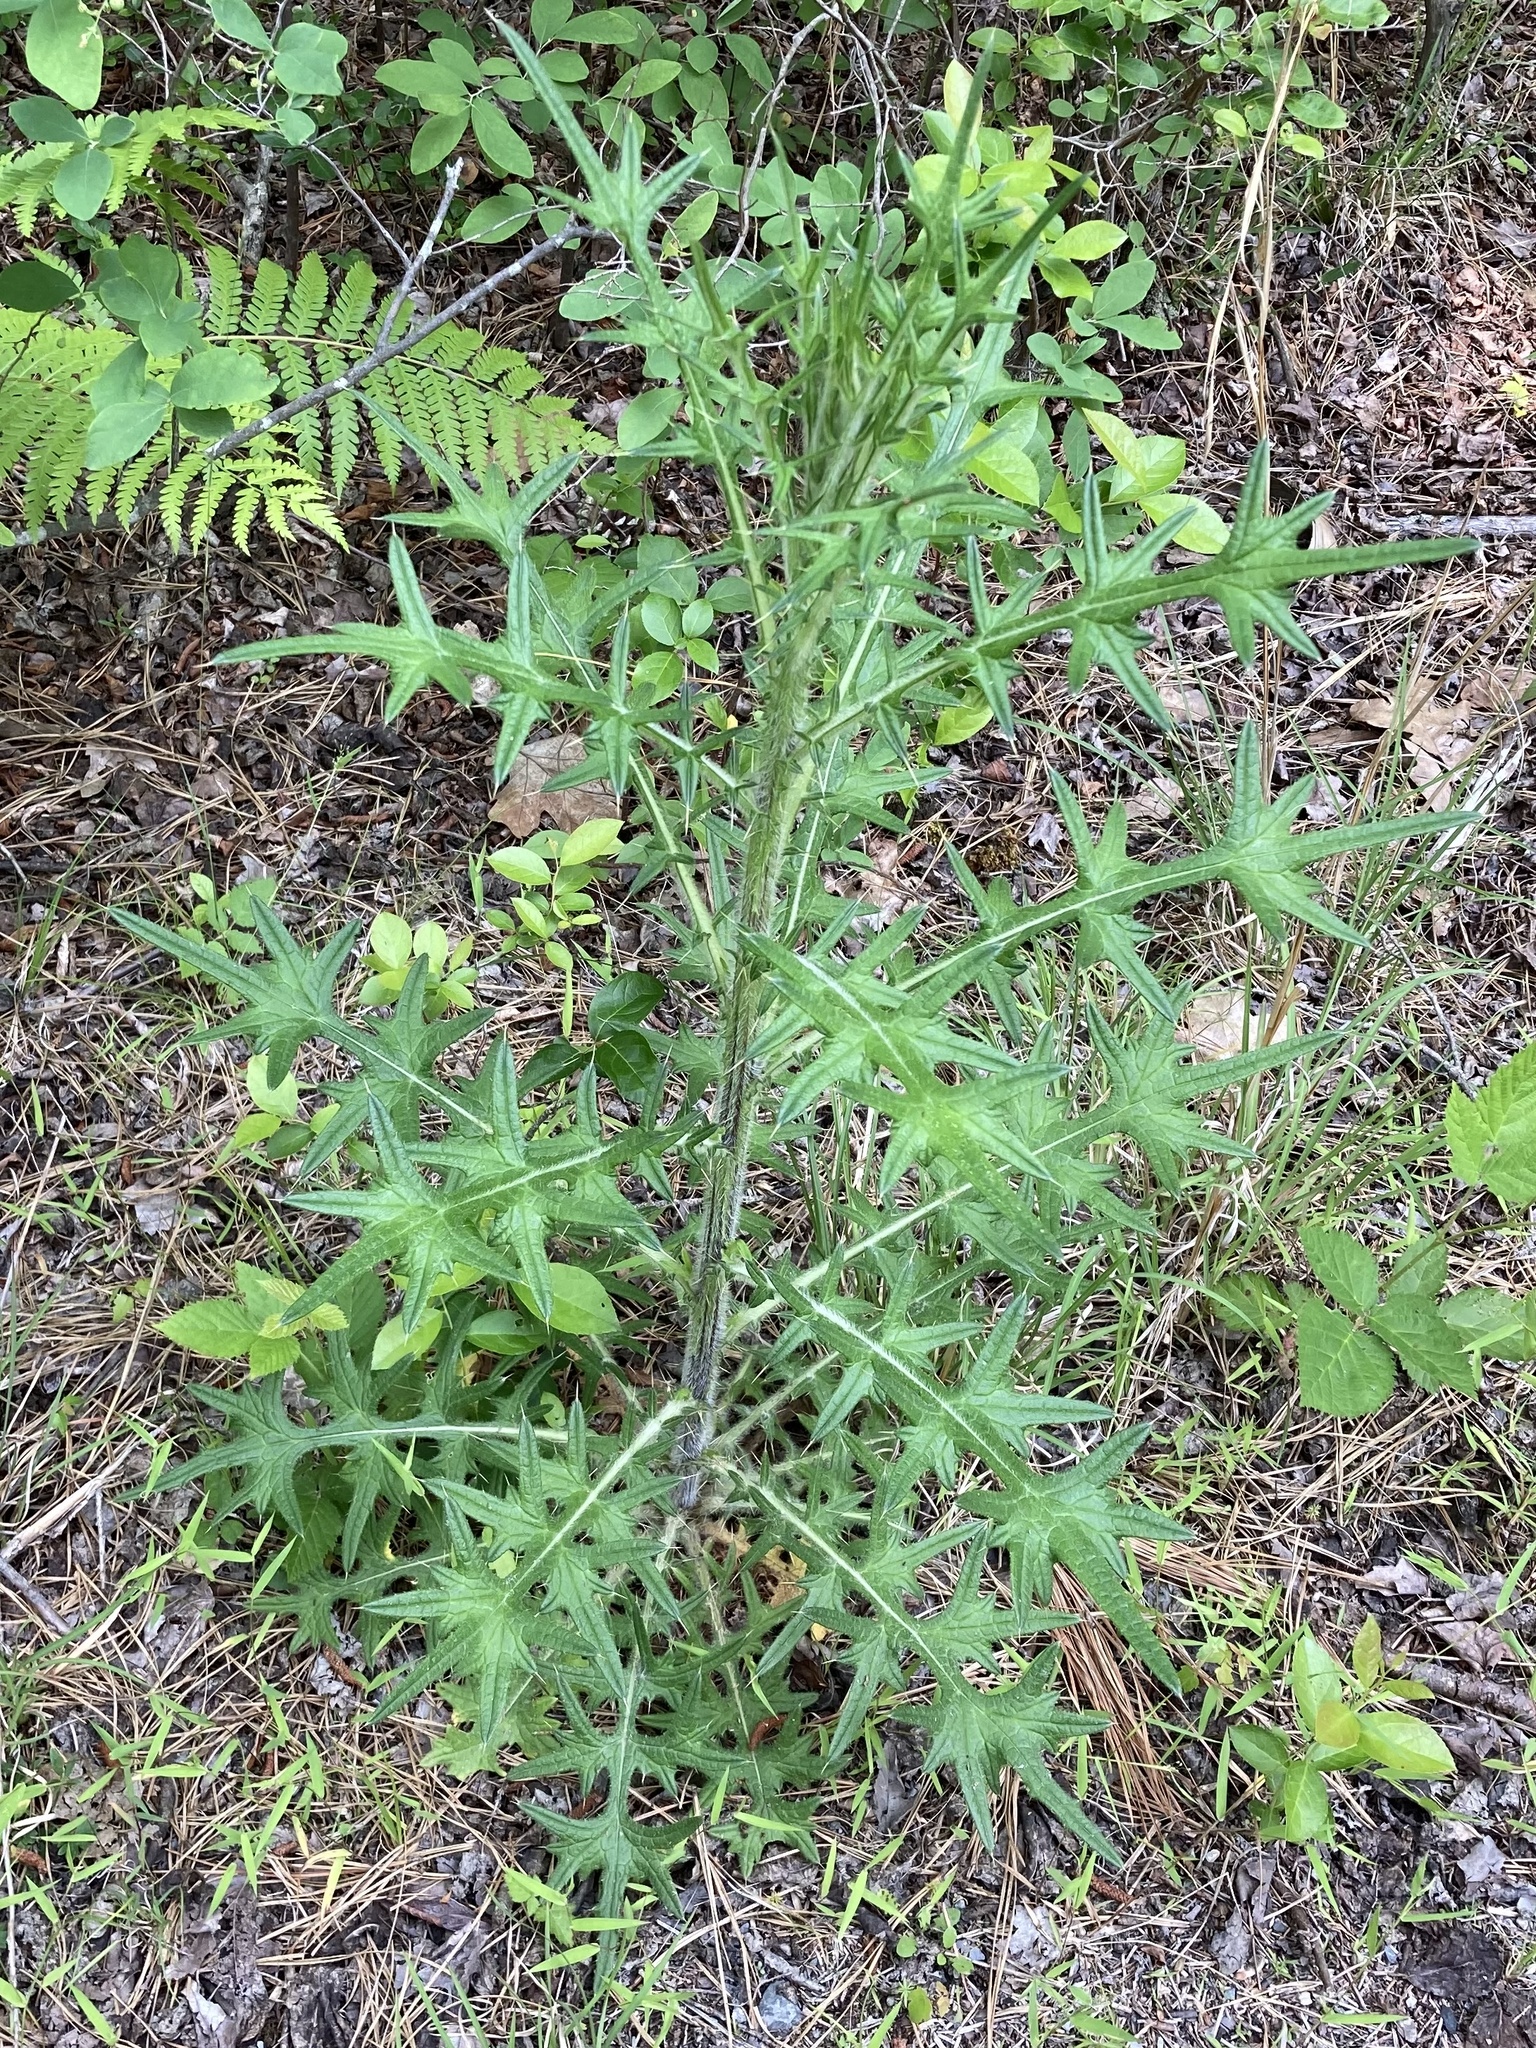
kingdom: Plantae
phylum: Tracheophyta
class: Magnoliopsida
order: Asterales
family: Asteraceae
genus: Cirsium
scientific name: Cirsium vulgare
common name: Bull thistle
